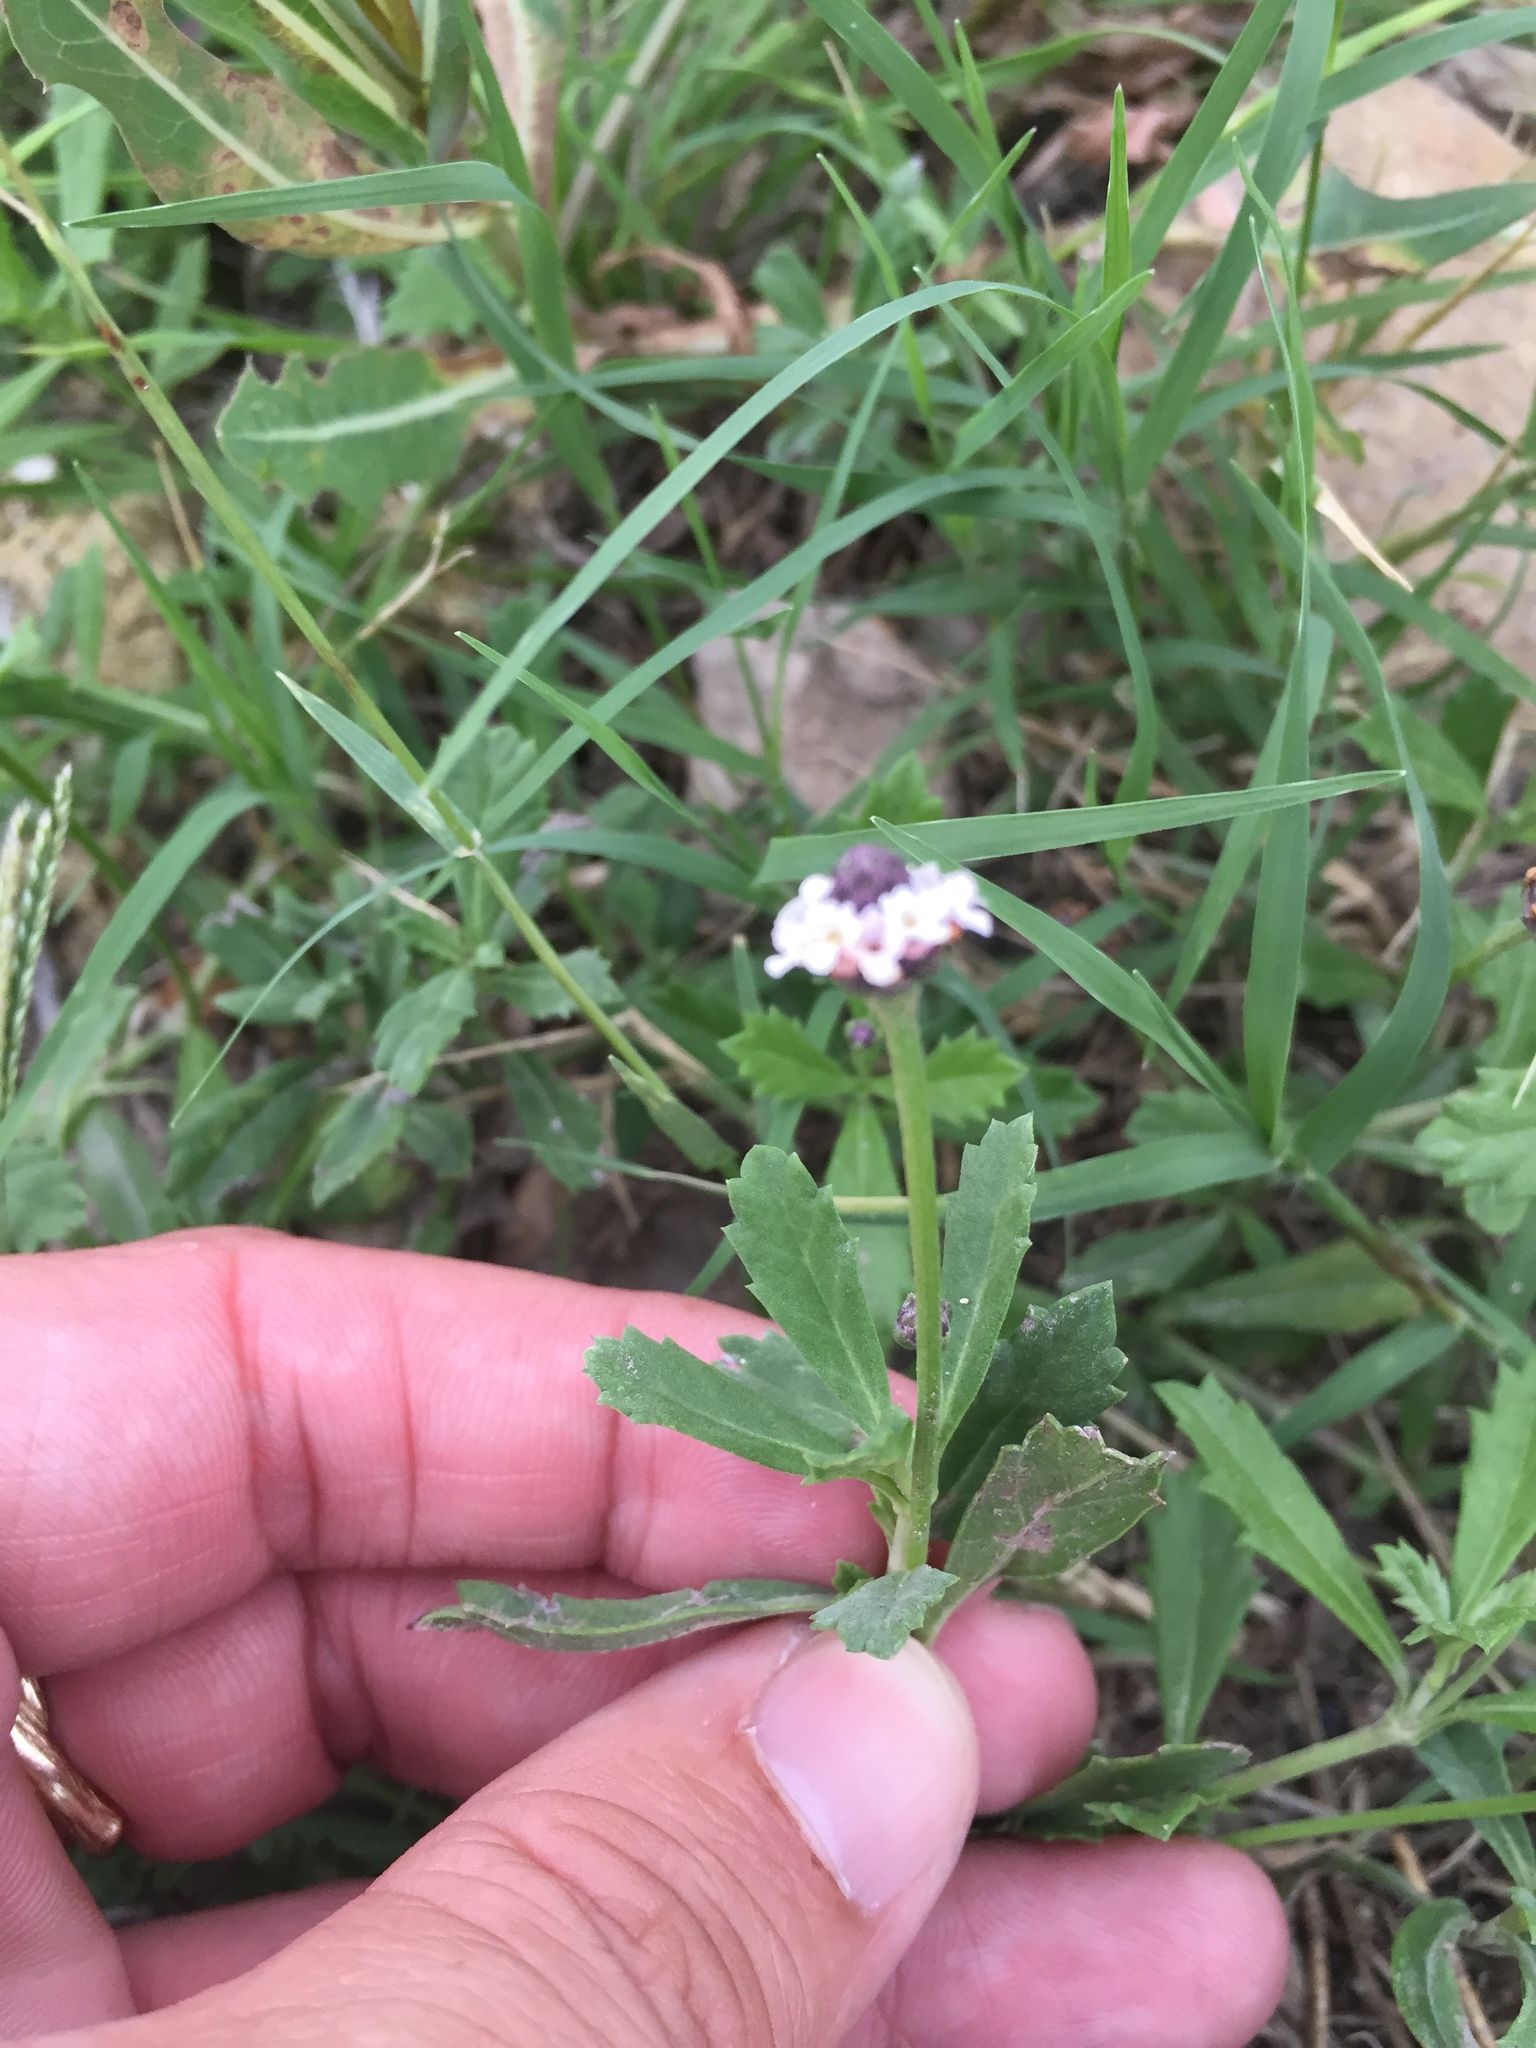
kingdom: Plantae
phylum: Tracheophyta
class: Magnoliopsida
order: Lamiales
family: Verbenaceae
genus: Phyla
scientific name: Phyla nodiflora
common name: Frogfruit
